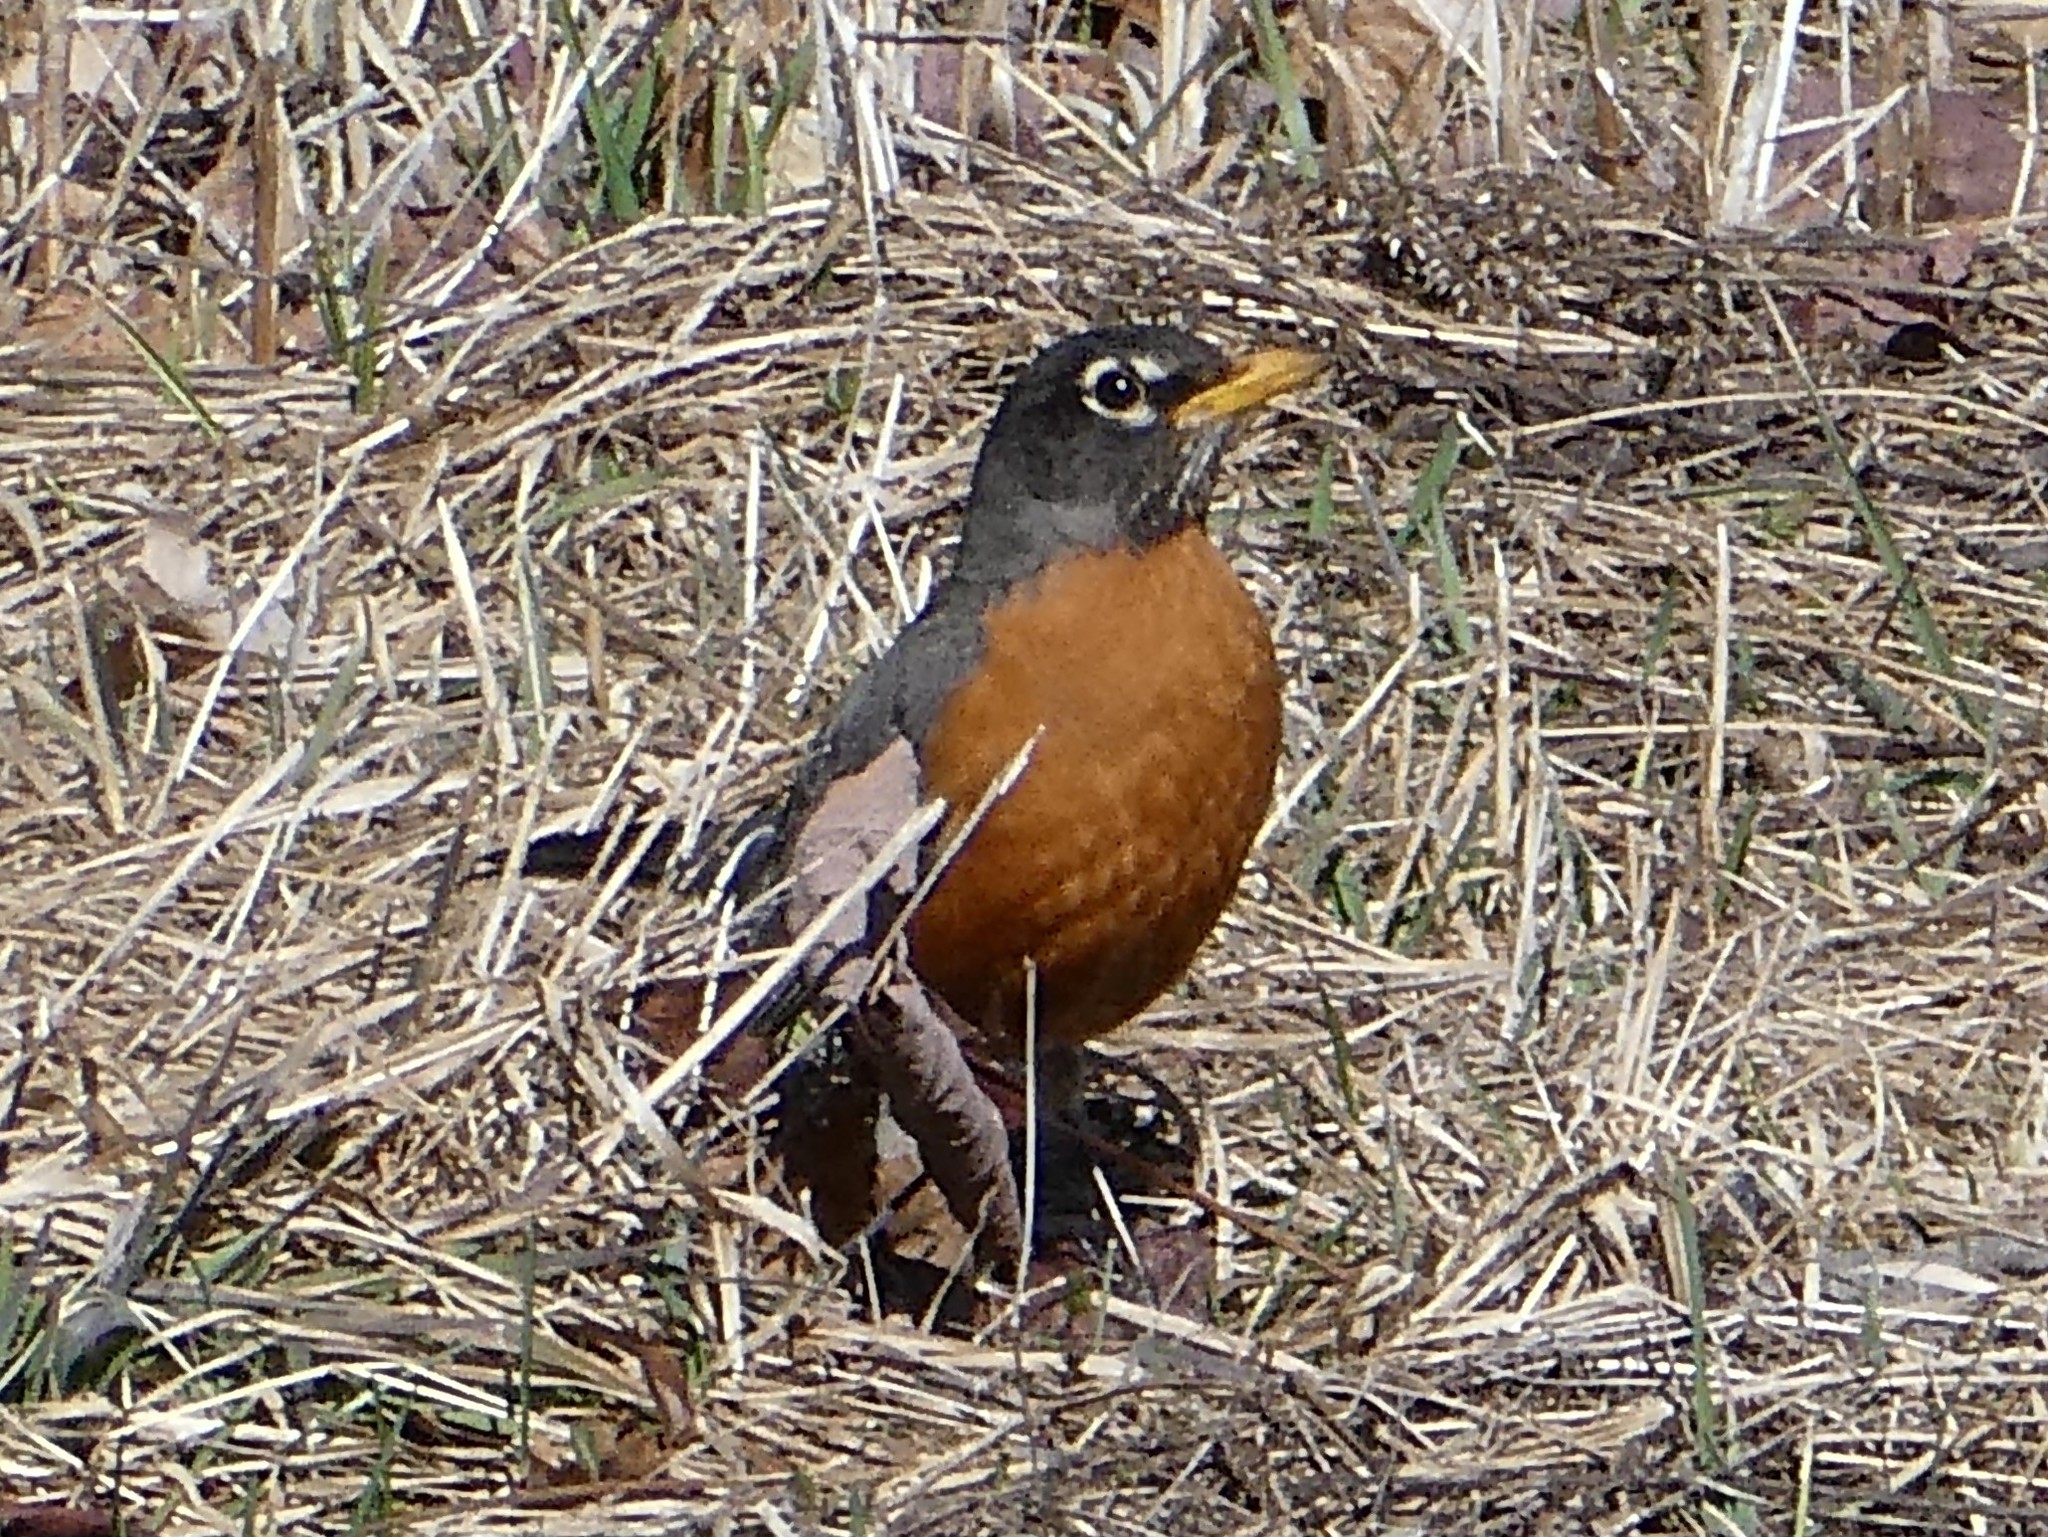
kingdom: Animalia
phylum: Chordata
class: Aves
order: Passeriformes
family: Turdidae
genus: Turdus
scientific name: Turdus migratorius
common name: American robin
